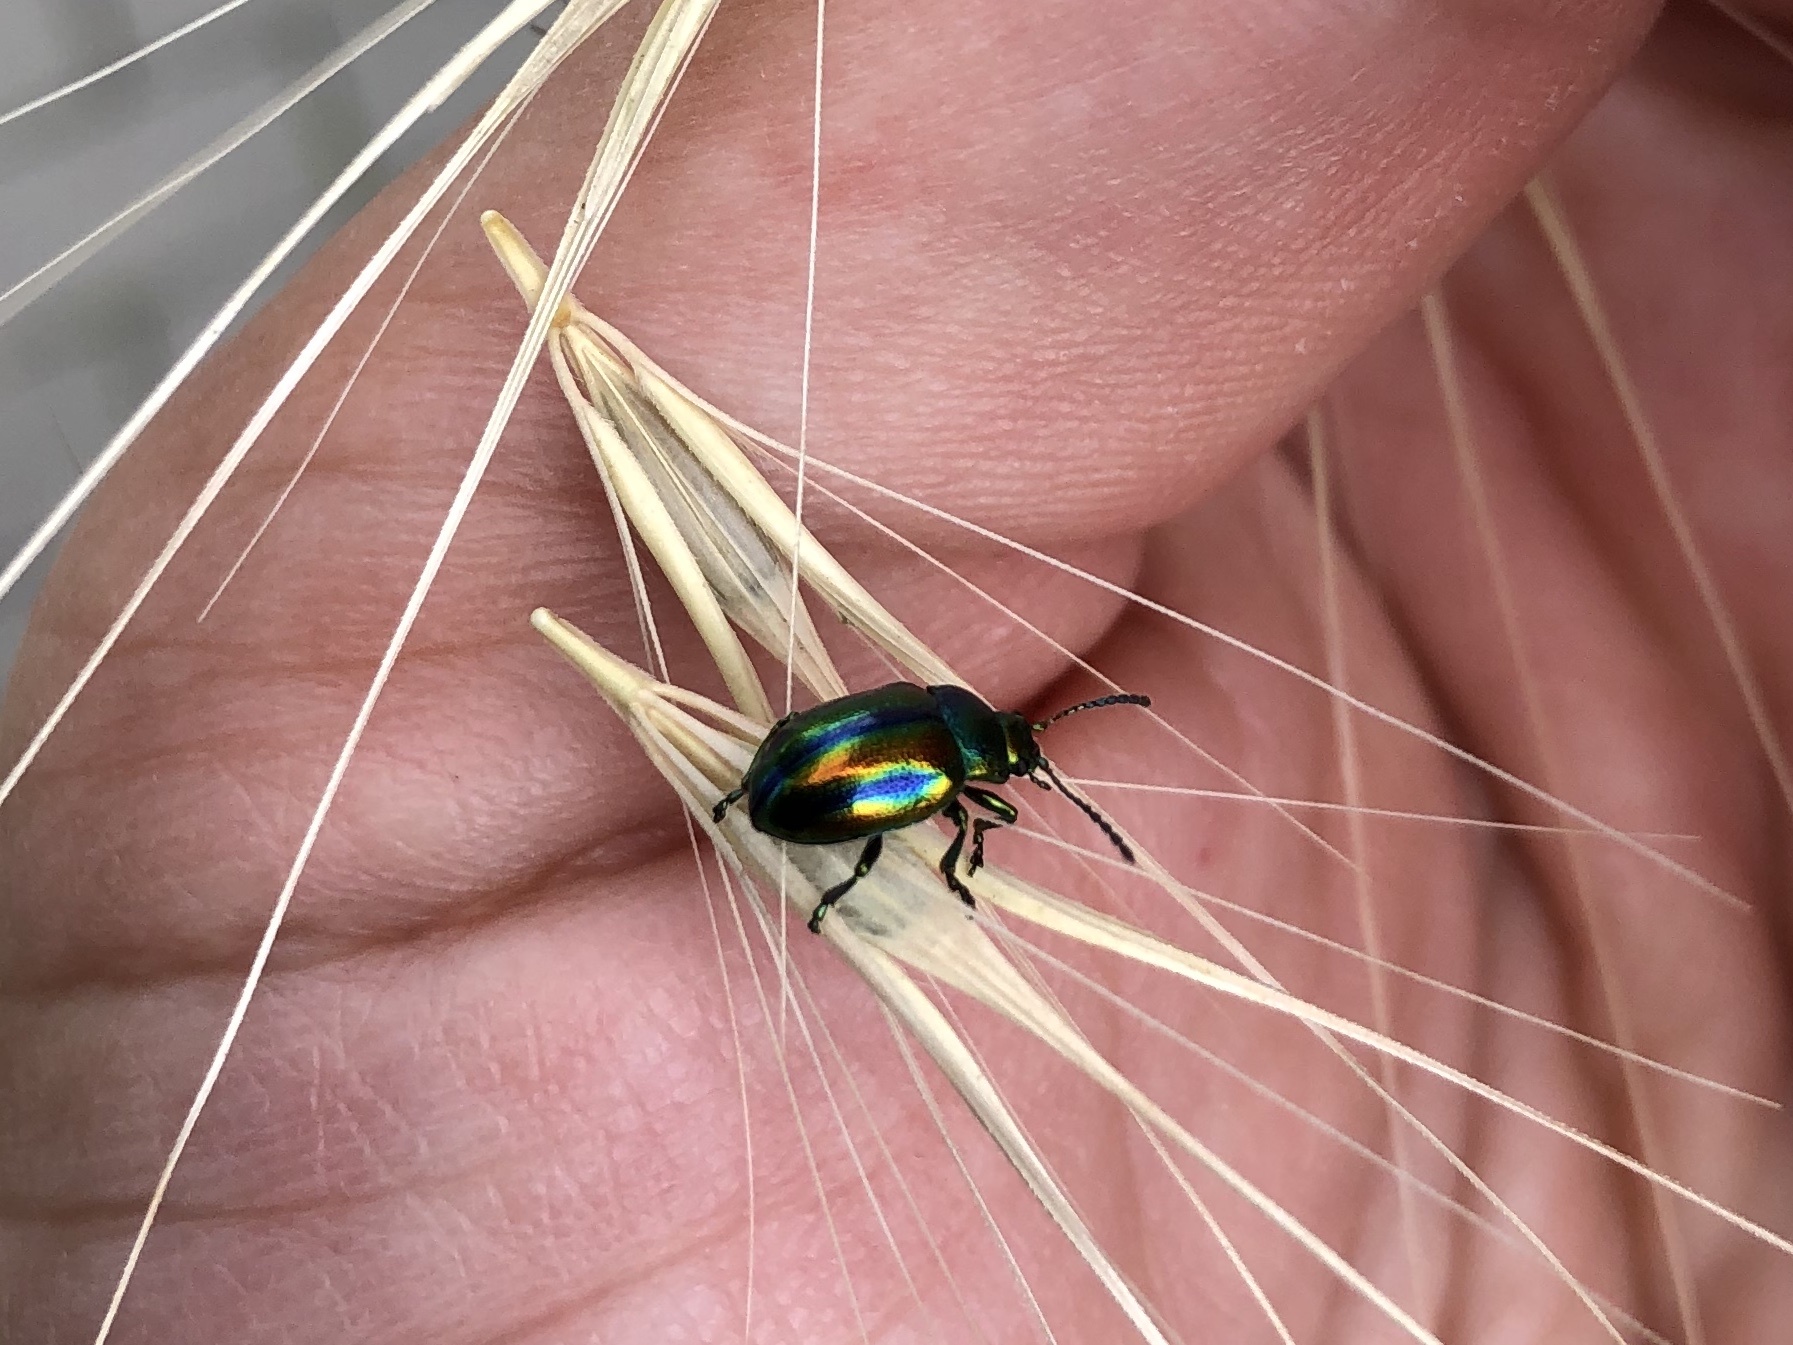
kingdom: Animalia
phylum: Arthropoda
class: Insecta
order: Coleoptera
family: Chrysomelidae
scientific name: Chrysomelidae
